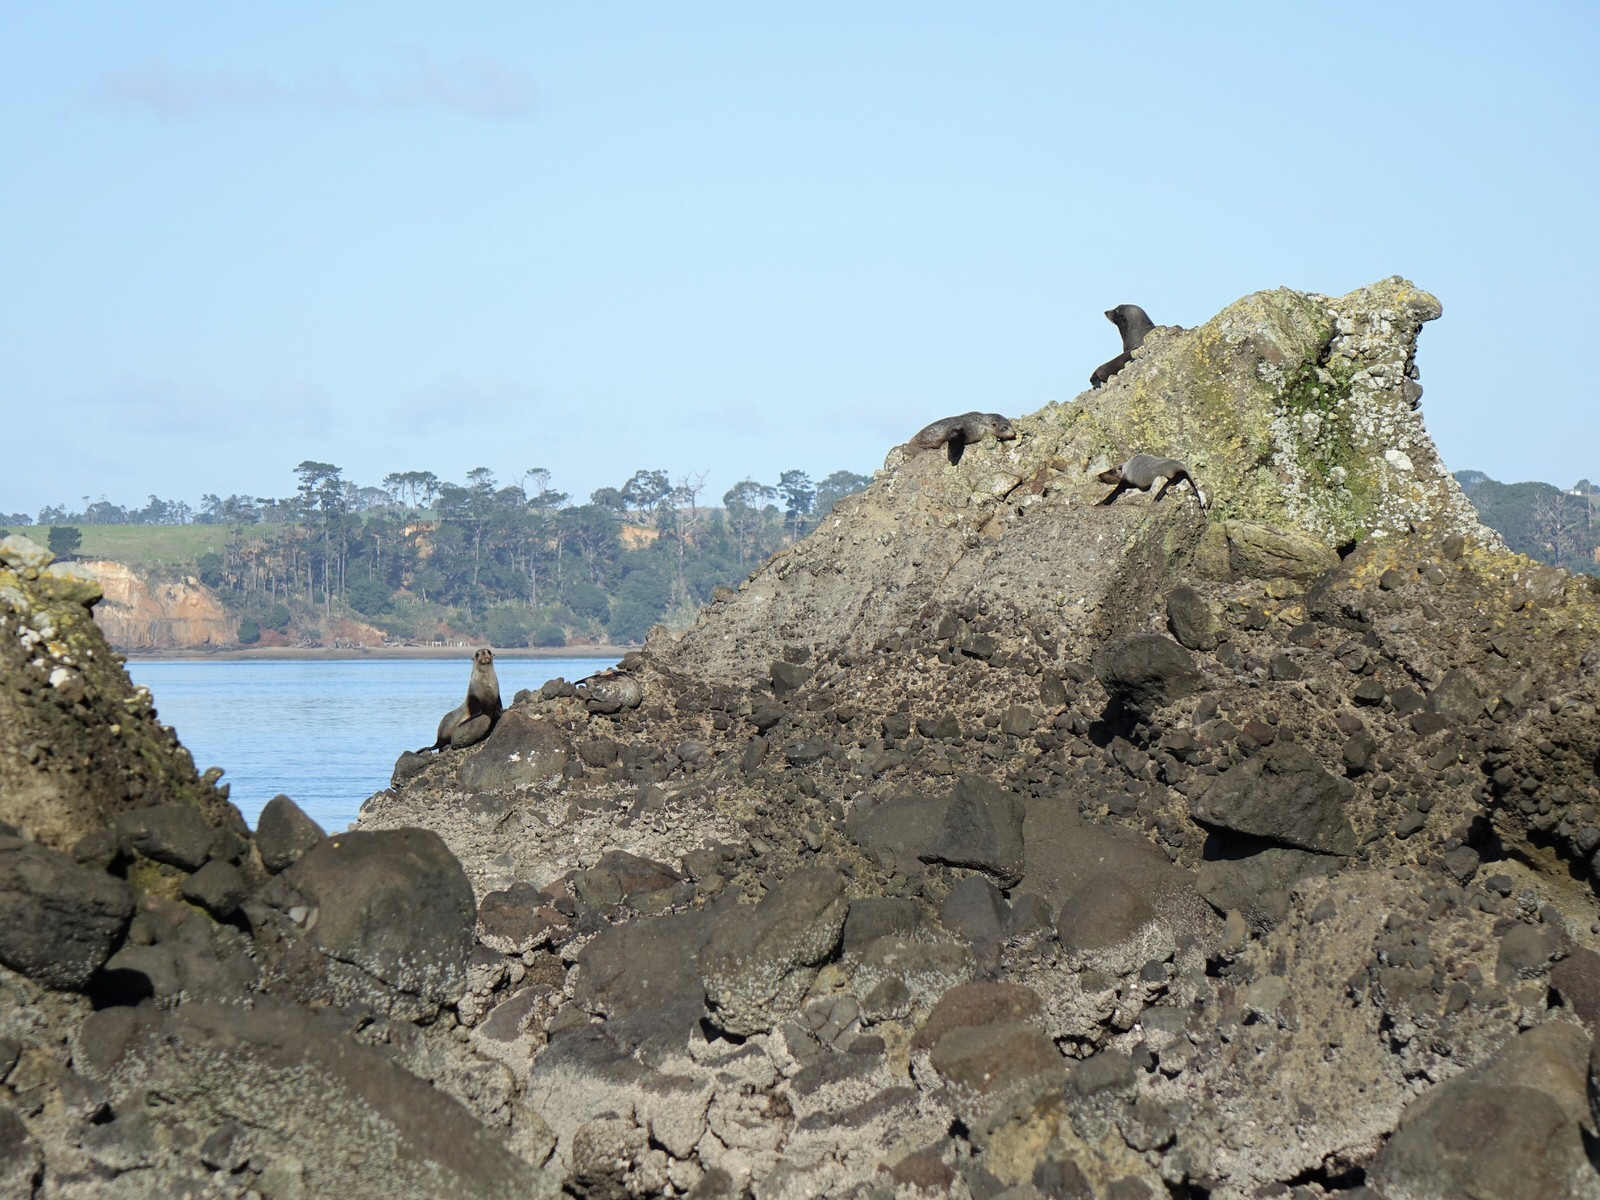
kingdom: Animalia
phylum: Chordata
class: Mammalia
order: Carnivora
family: Otariidae
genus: Arctocephalus
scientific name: Arctocephalus forsteri
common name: New zealand fur seal
